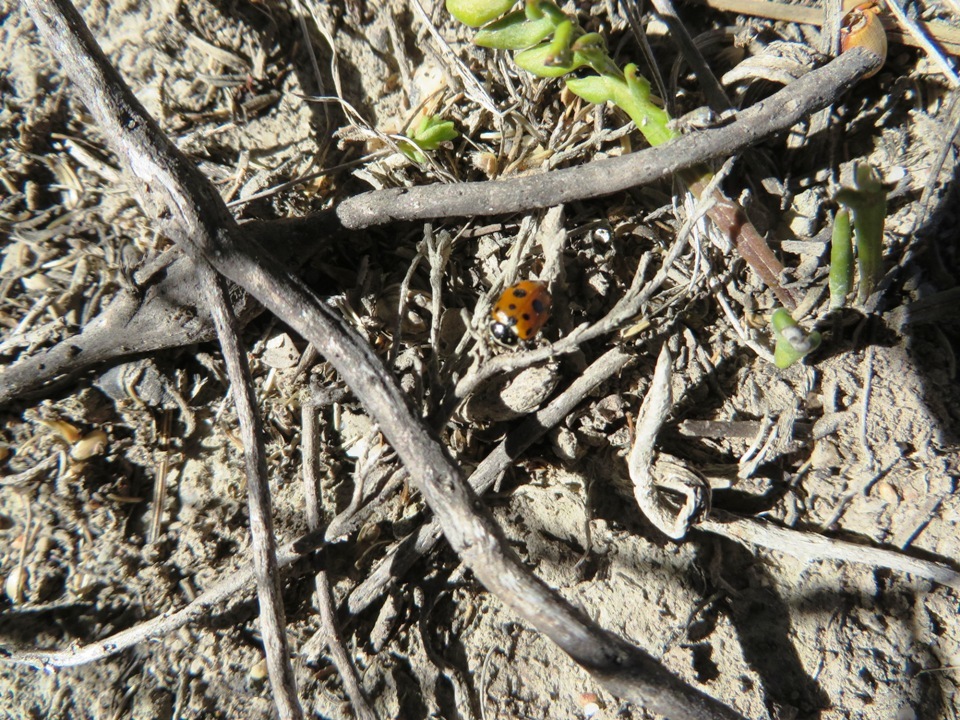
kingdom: Animalia
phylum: Arthropoda
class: Insecta
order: Coleoptera
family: Coccinellidae
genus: Hippodamia
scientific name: Hippodamia variegata
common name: Ladybird beetle
